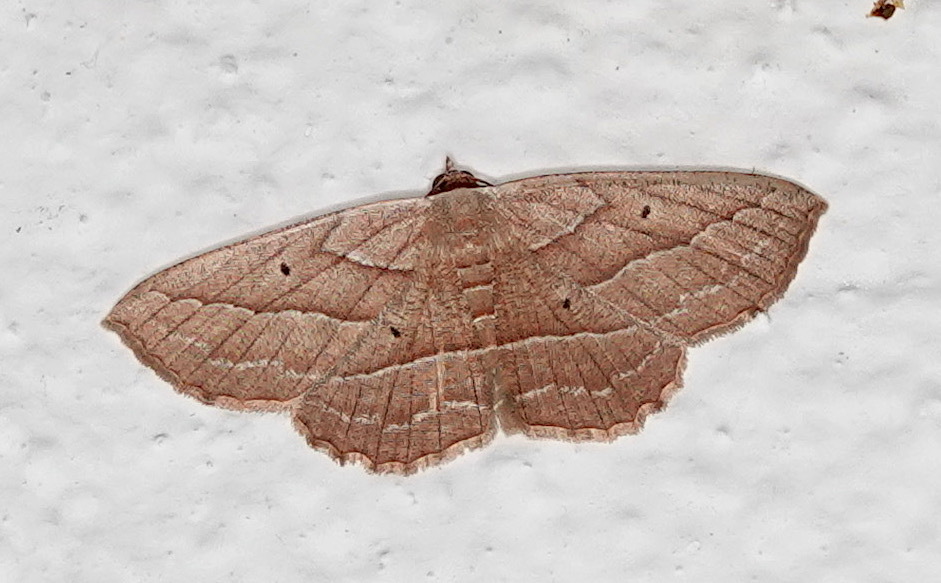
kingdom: Animalia
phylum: Arthropoda
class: Insecta
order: Lepidoptera
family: Geometridae
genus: Nadagara
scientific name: Nadagara reprensata
